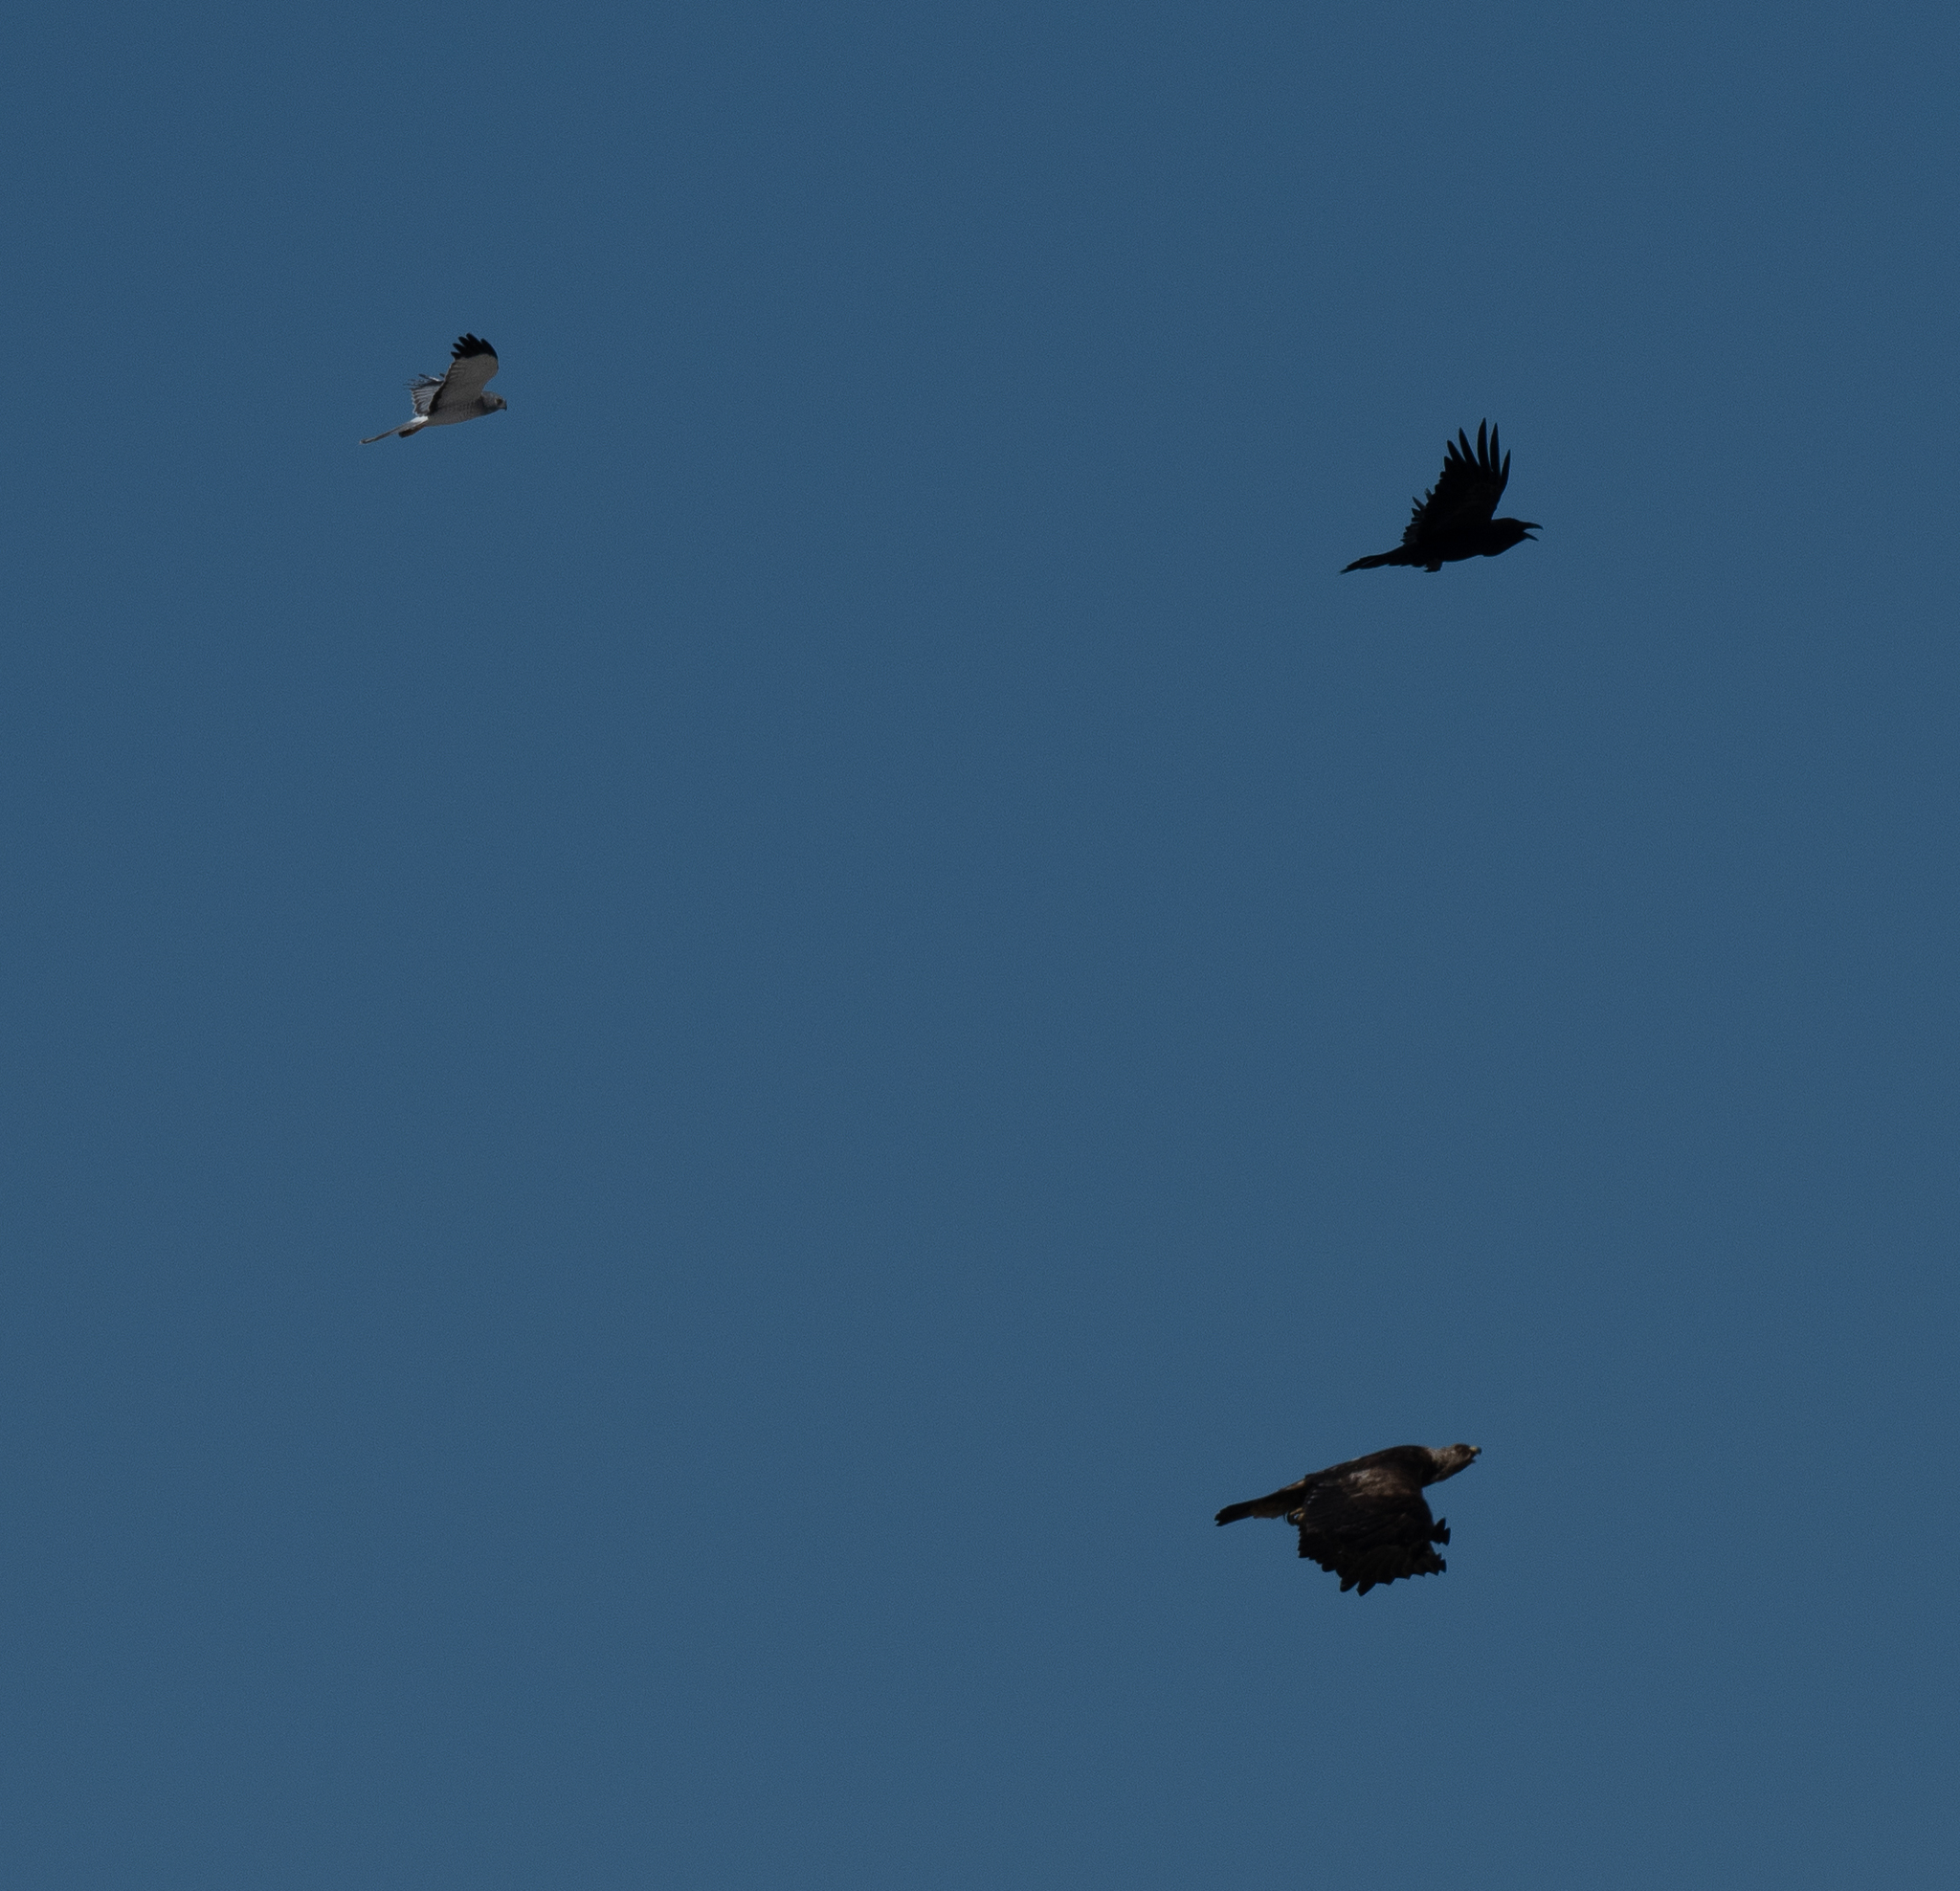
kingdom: Animalia
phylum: Chordata
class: Aves
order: Accipitriformes
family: Accipitridae
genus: Aquila
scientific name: Aquila chrysaetos
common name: Golden eagle
